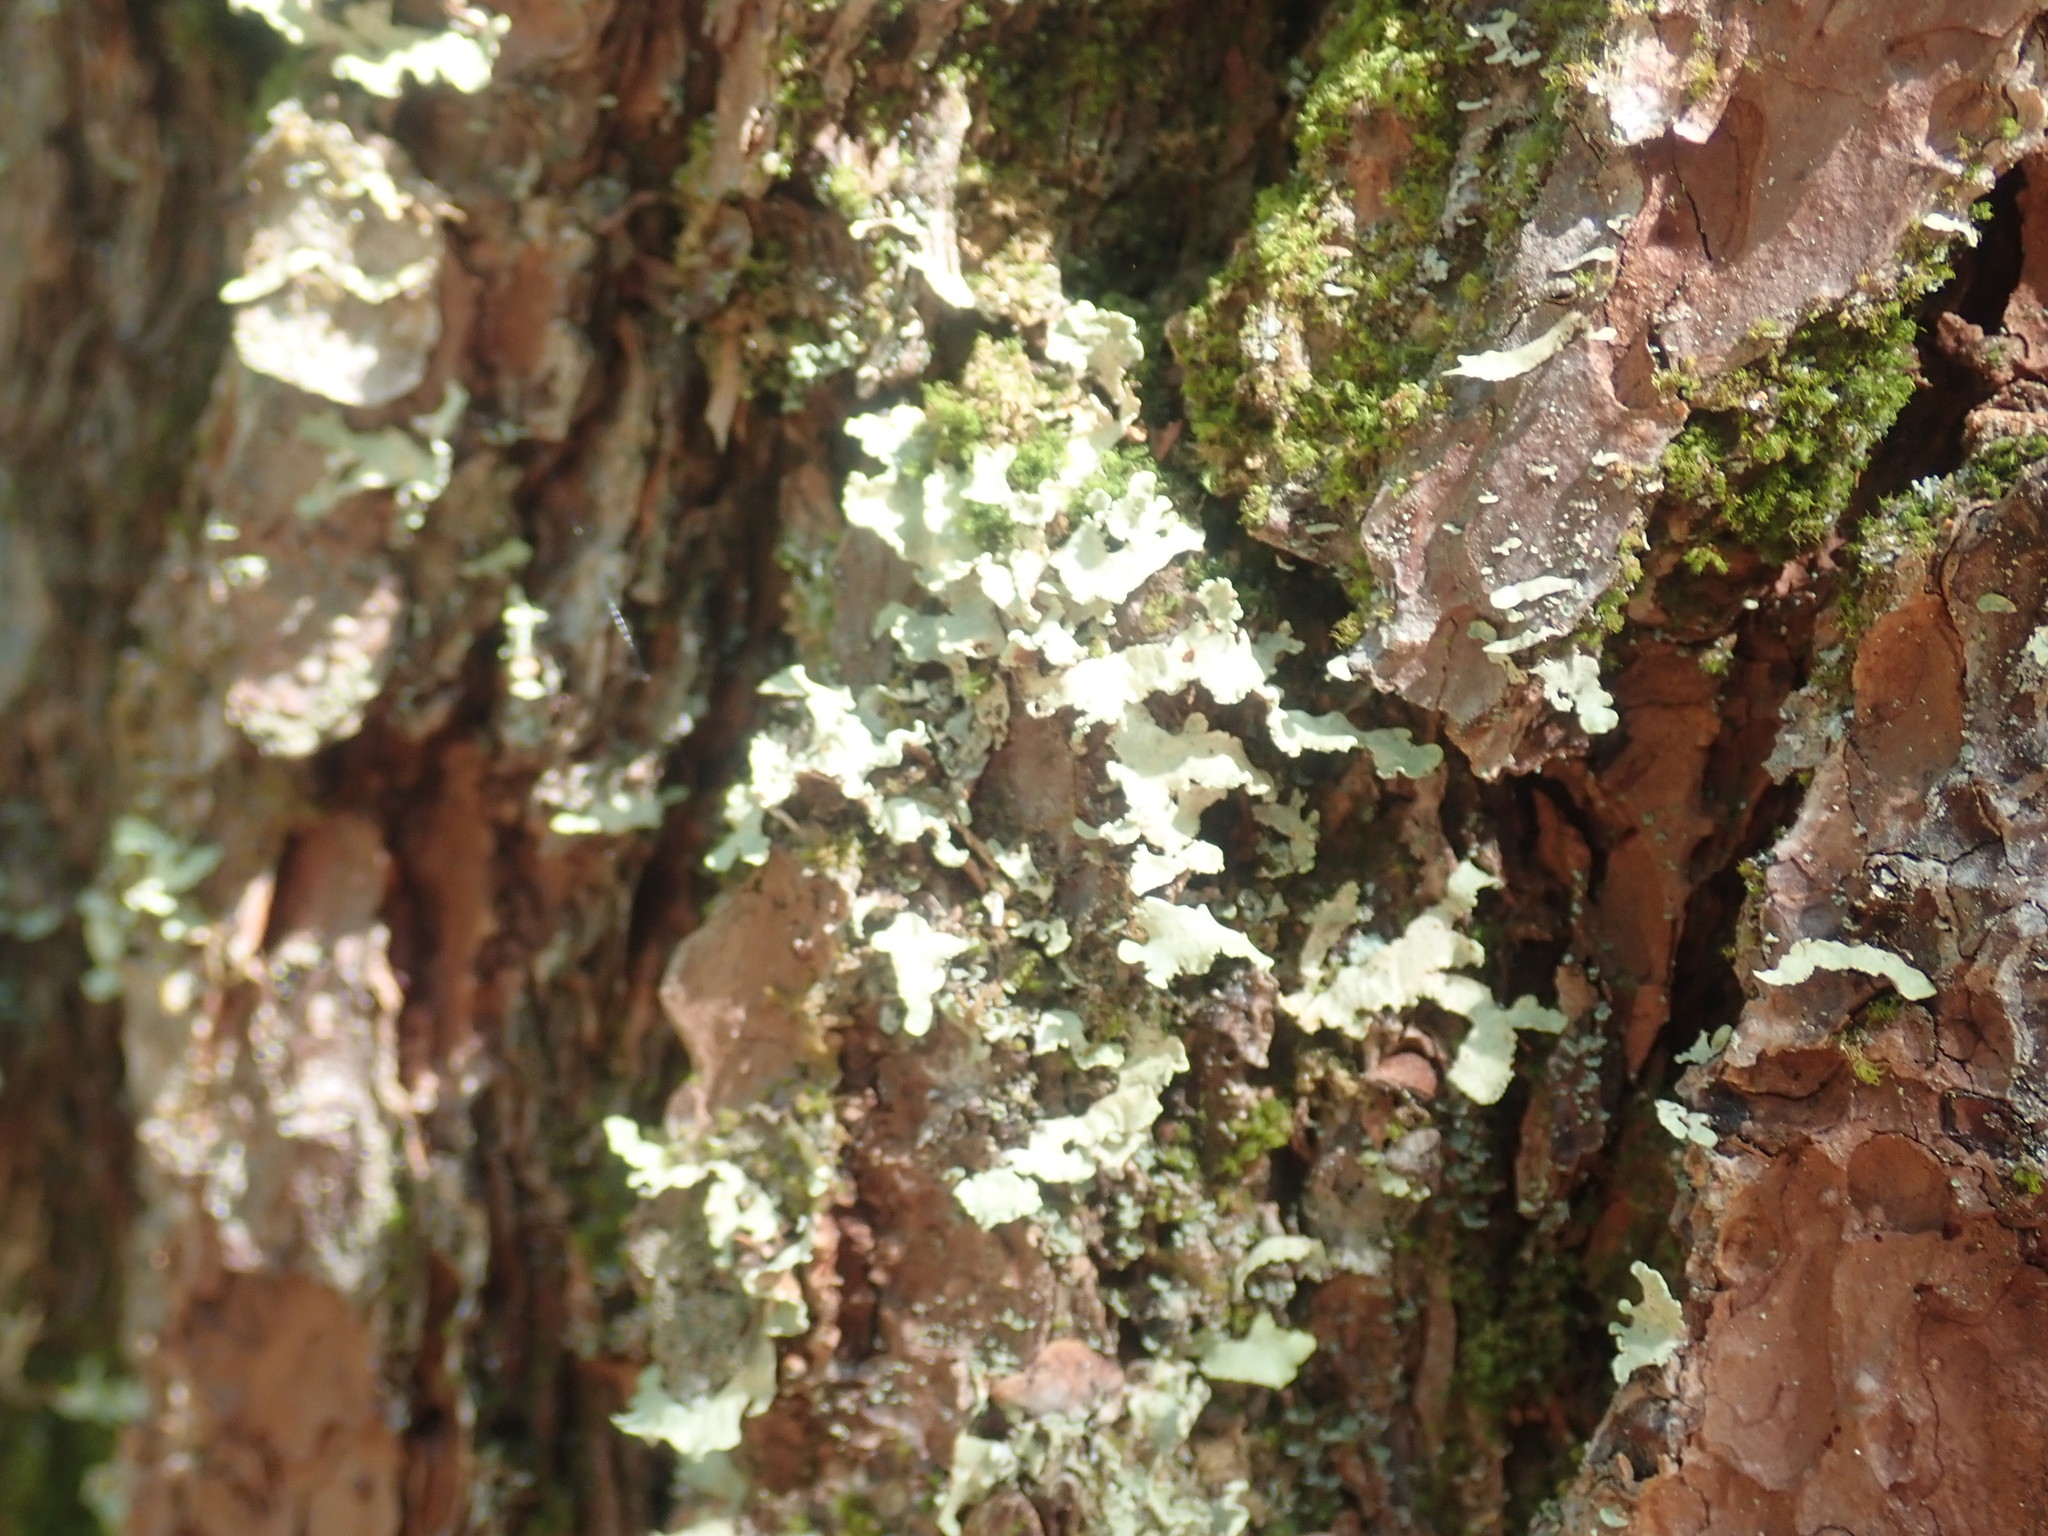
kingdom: Fungi
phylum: Ascomycota
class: Lecanoromycetes
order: Lecanorales
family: Parmeliaceae
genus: Usnocetraria
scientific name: Usnocetraria oakesiana
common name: Yellow ribbon lichen
